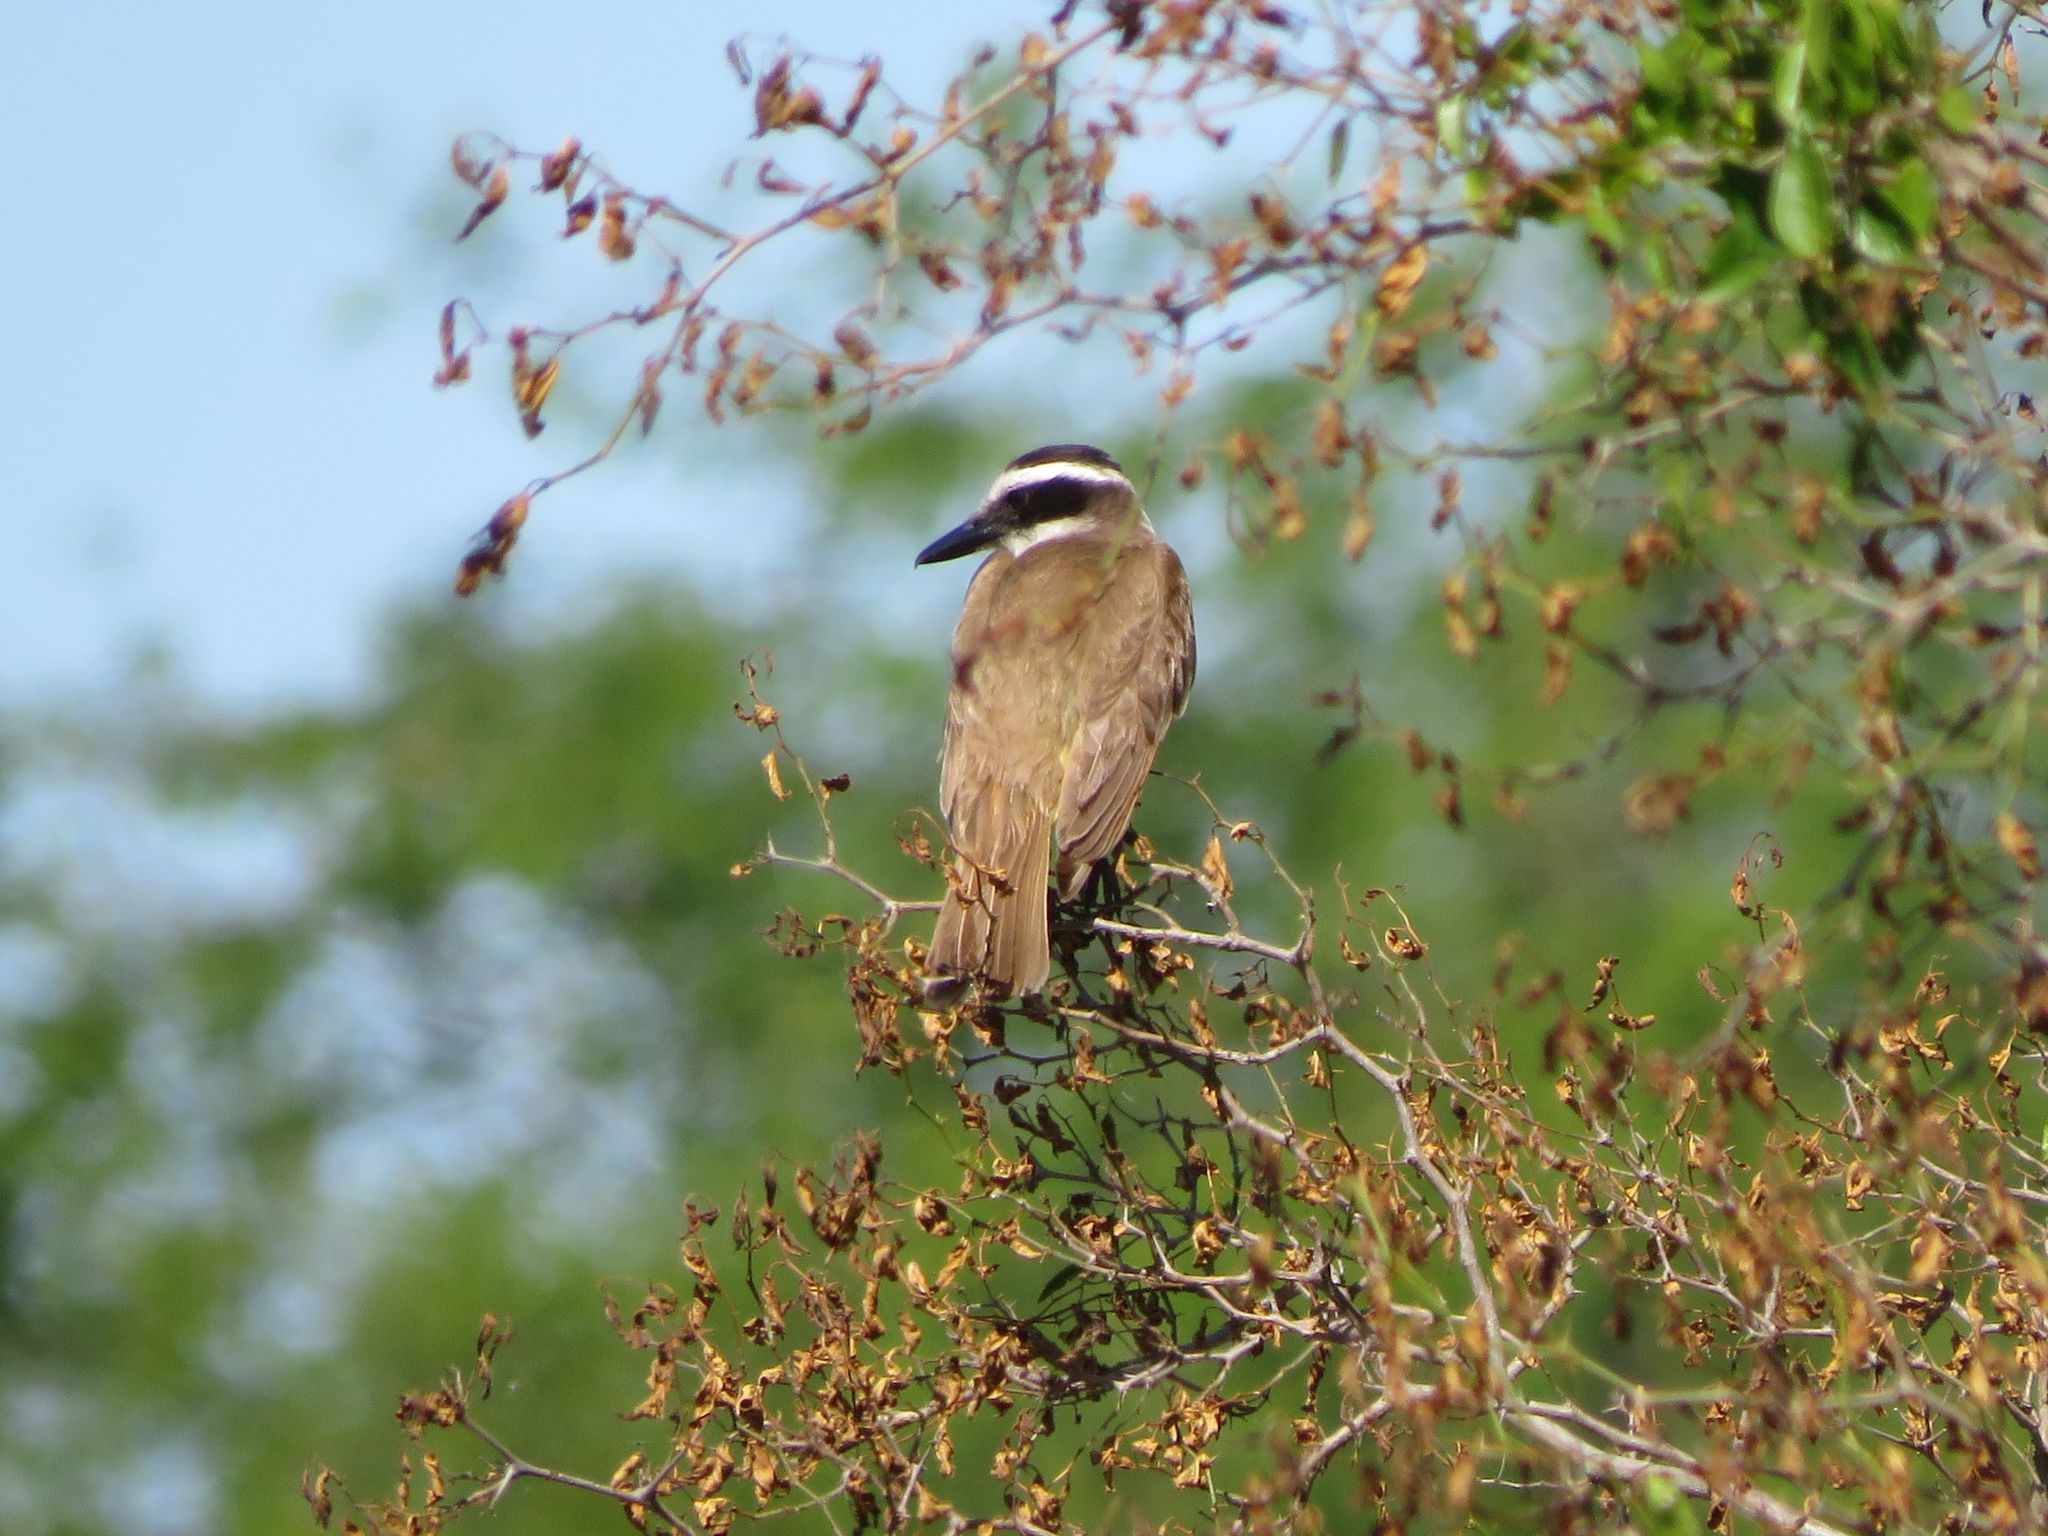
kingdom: Animalia
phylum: Chordata
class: Aves
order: Passeriformes
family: Tyrannidae
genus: Pitangus
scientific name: Pitangus sulphuratus
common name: Great kiskadee
